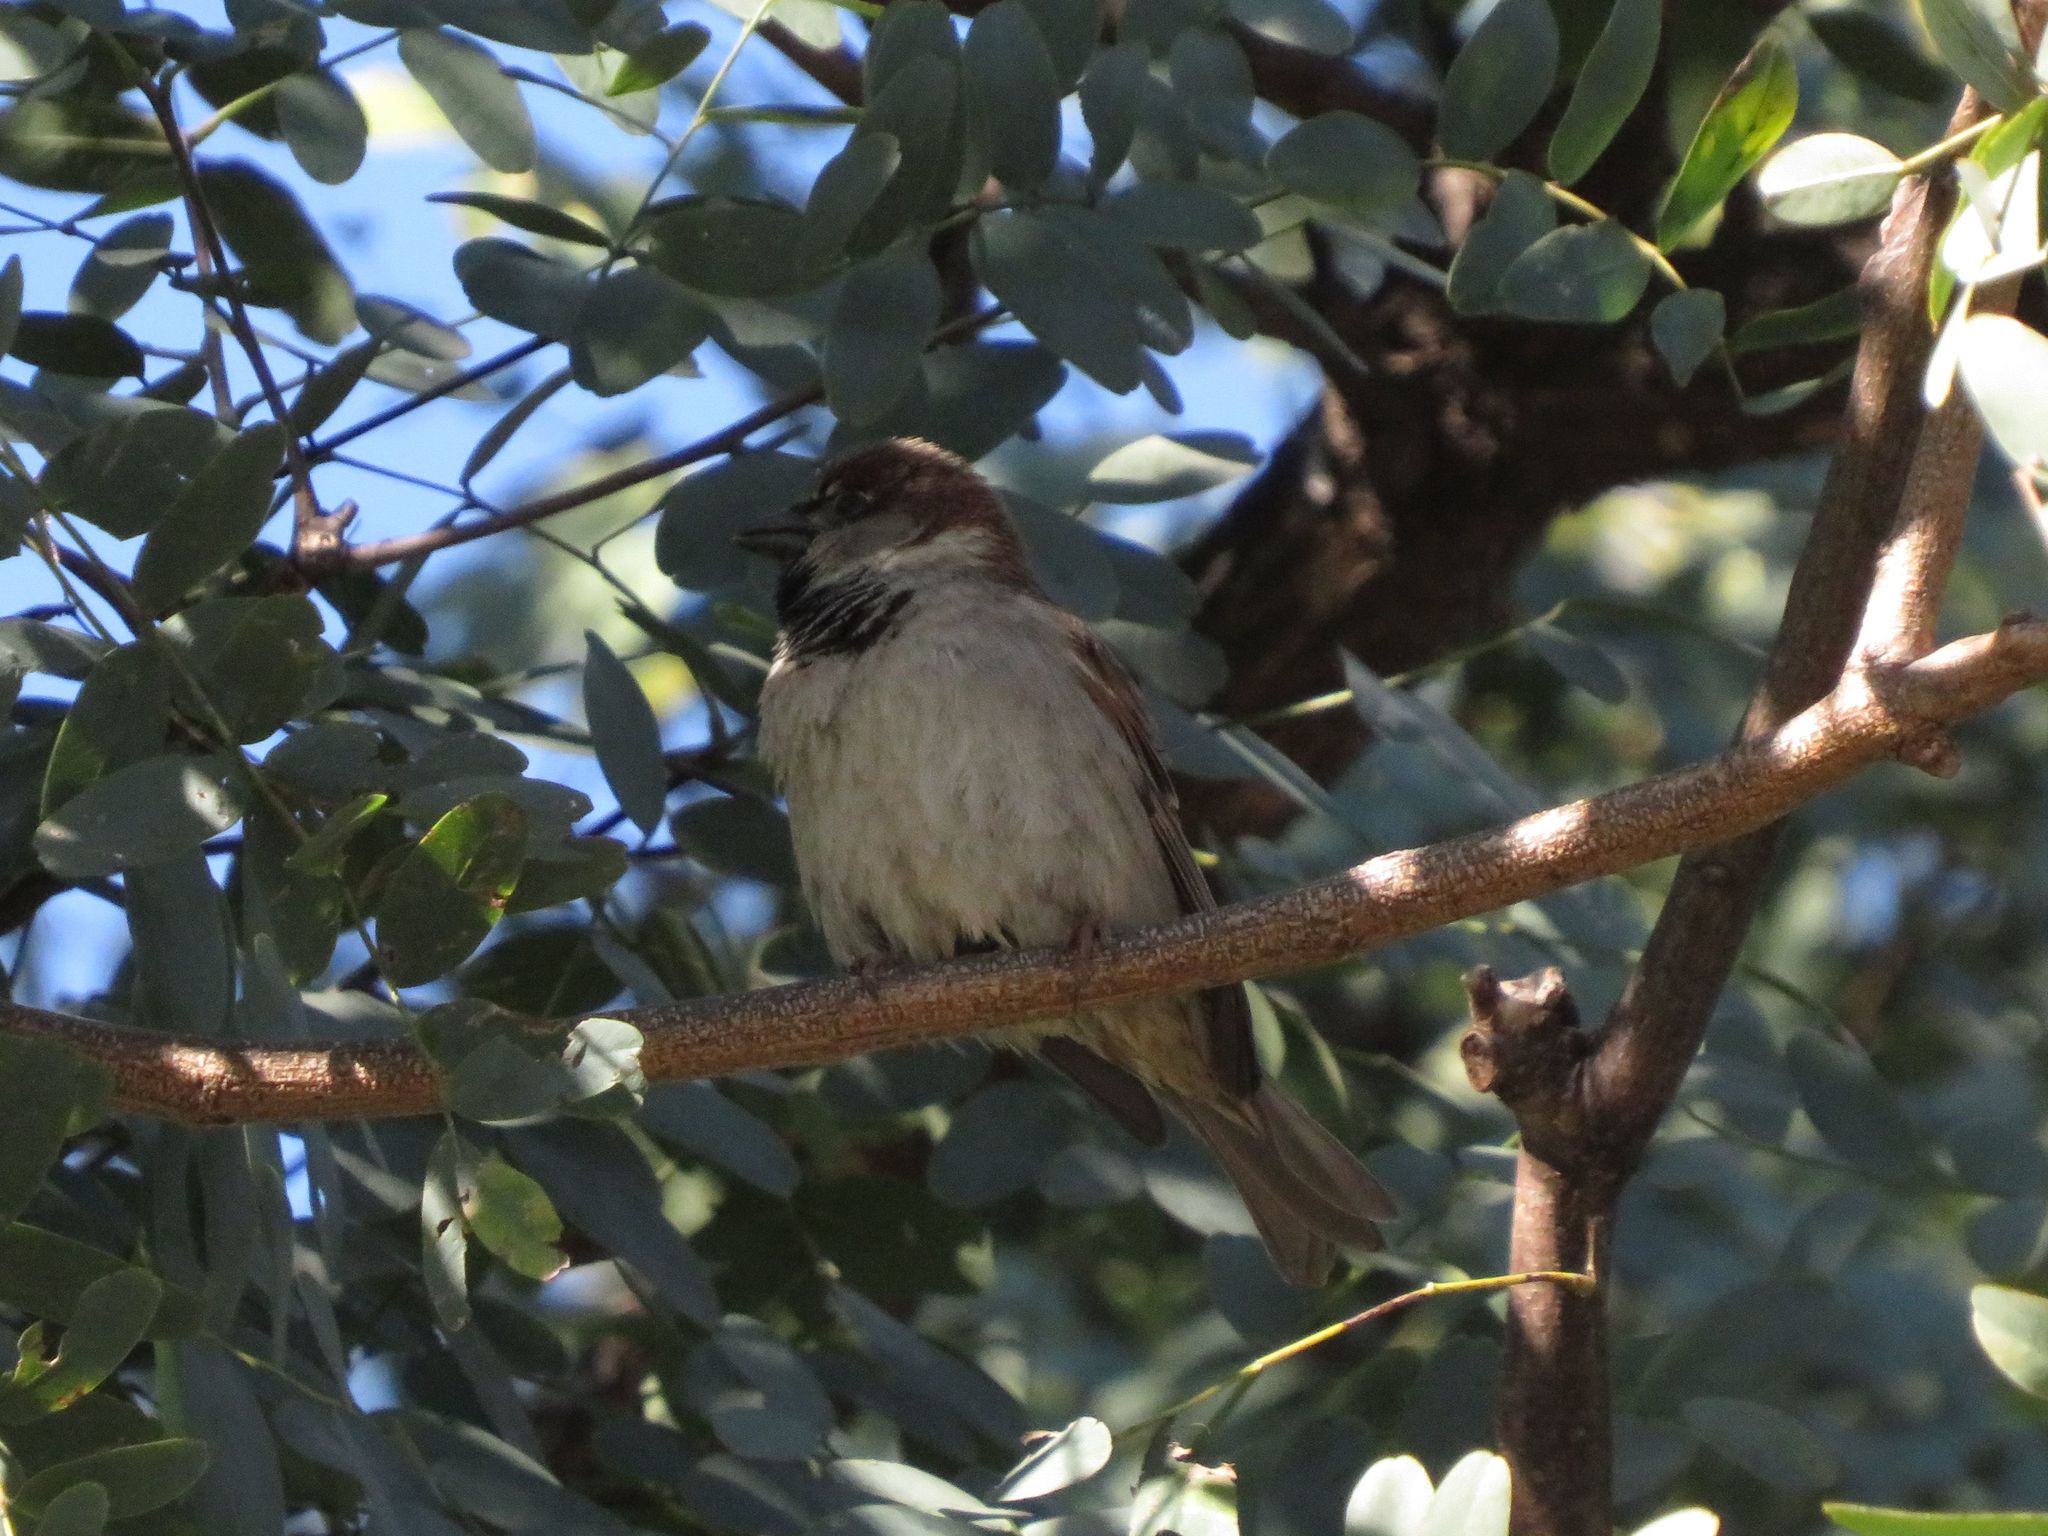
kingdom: Animalia
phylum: Chordata
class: Aves
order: Passeriformes
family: Passeridae
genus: Passer
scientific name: Passer domesticus
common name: House sparrow
